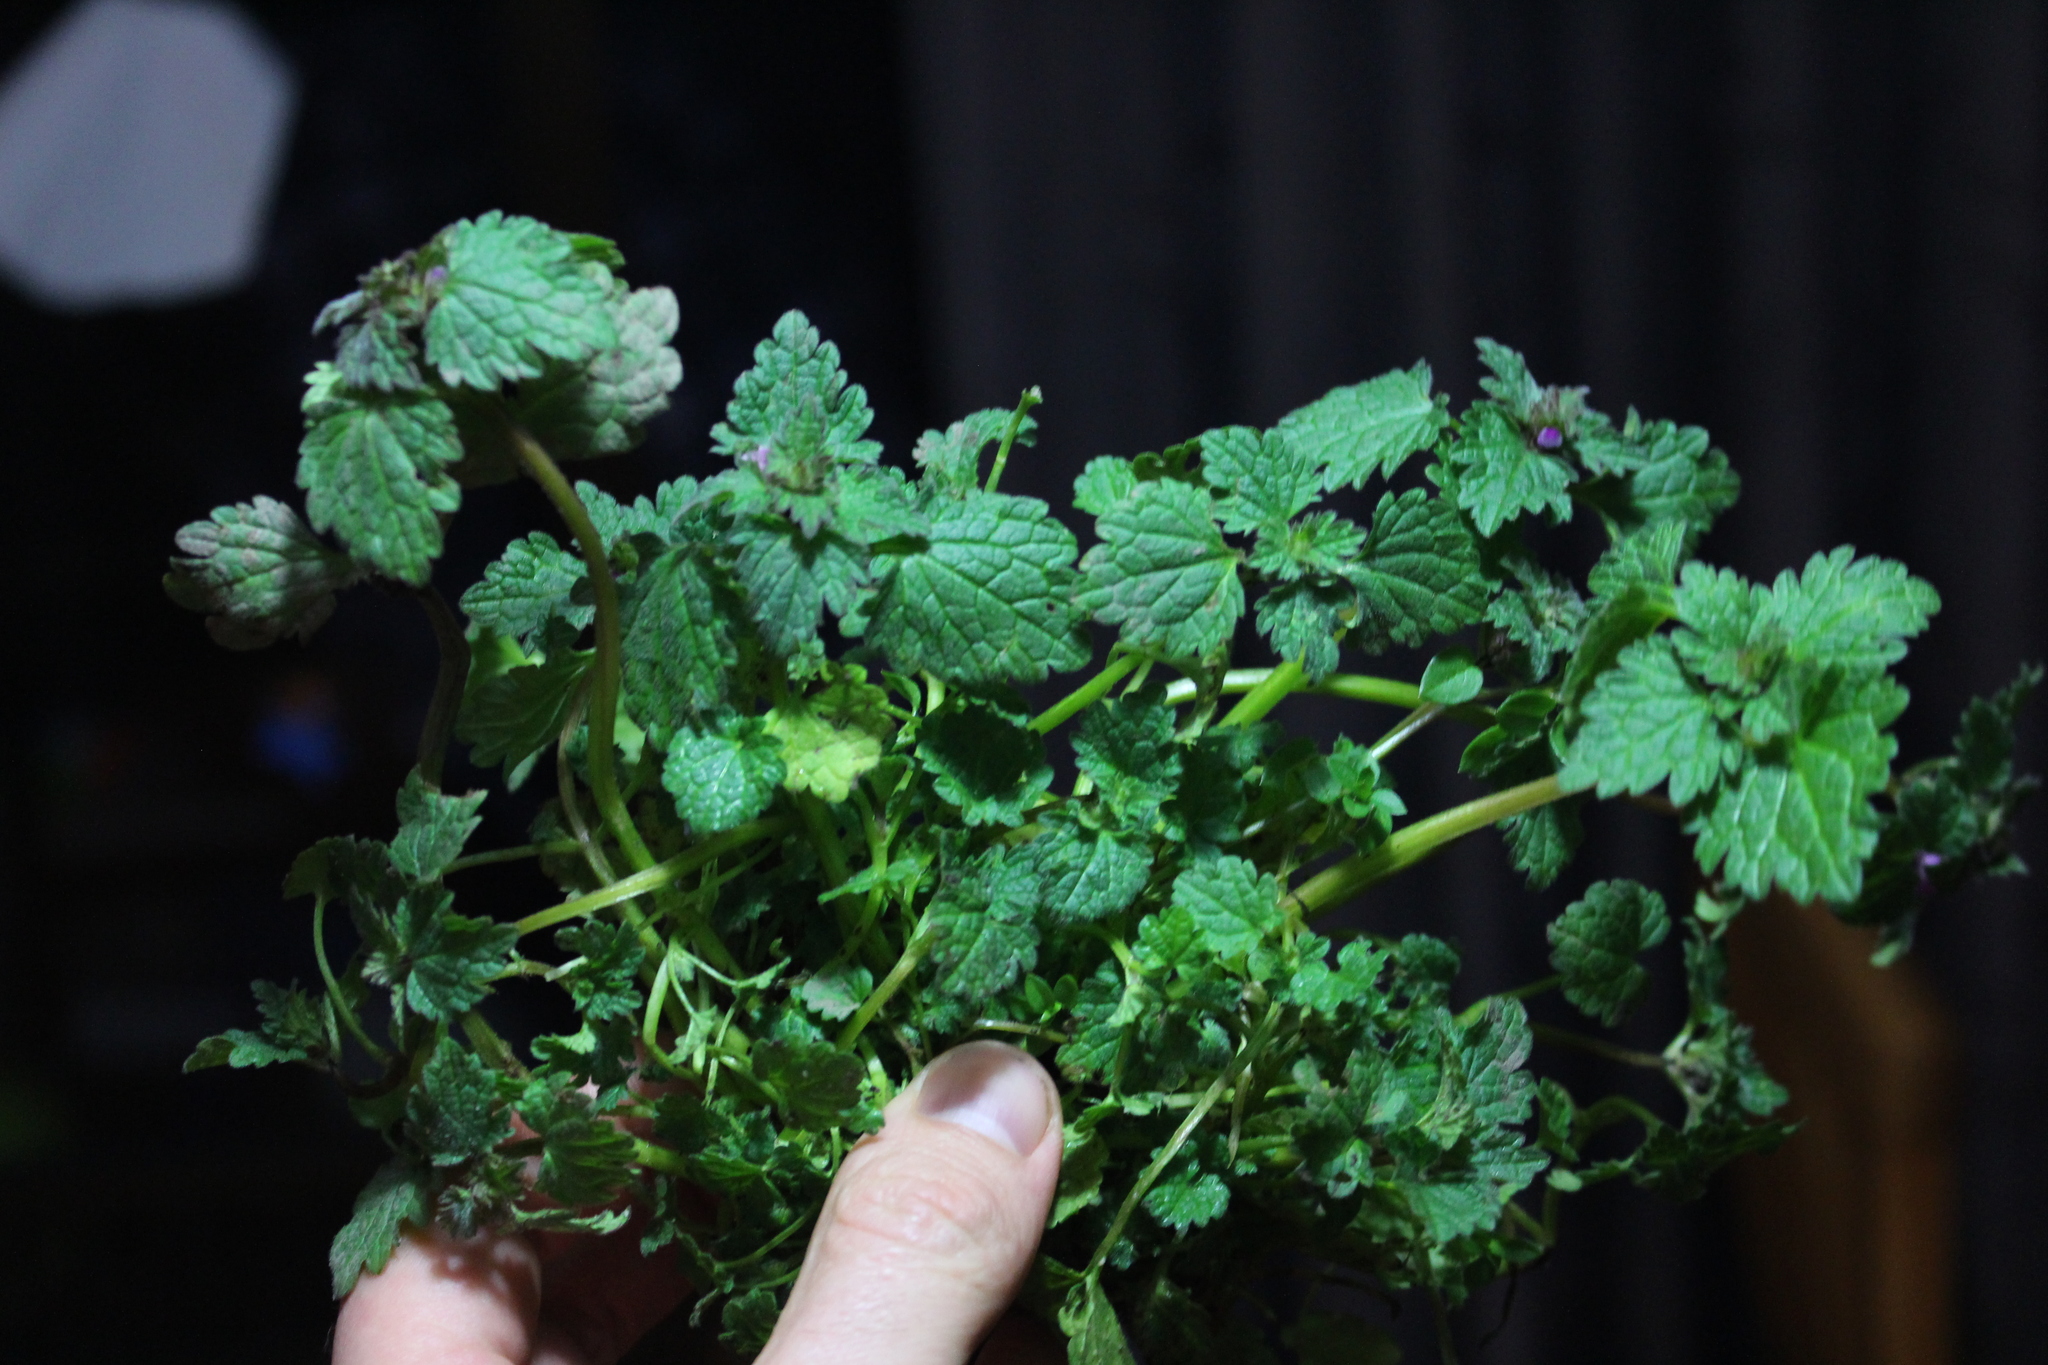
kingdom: Plantae
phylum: Tracheophyta
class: Magnoliopsida
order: Lamiales
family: Lamiaceae
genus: Lamium
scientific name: Lamium hybridum
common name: Cut-leaved dead-nettle
